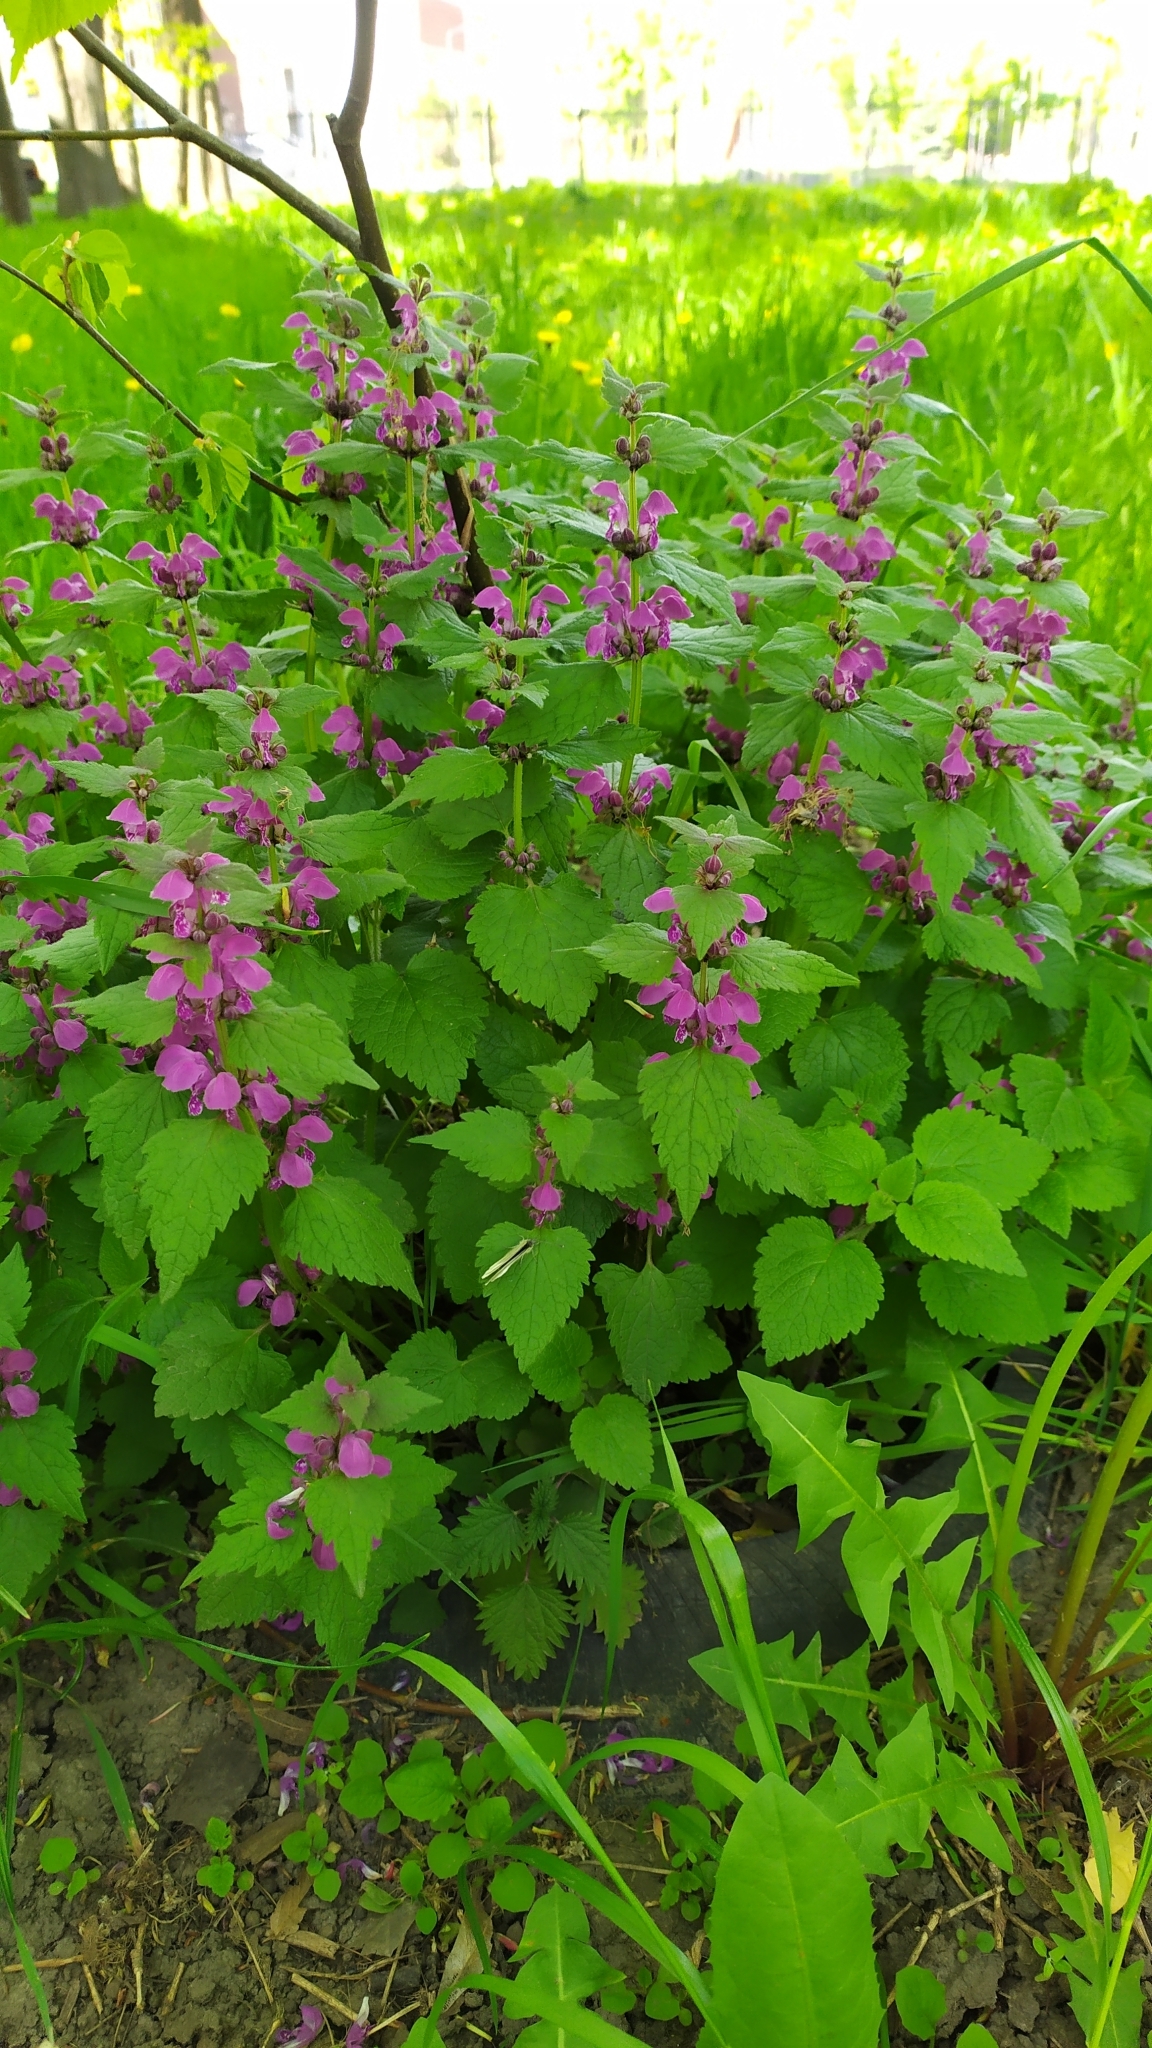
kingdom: Plantae
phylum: Tracheophyta
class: Magnoliopsida
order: Lamiales
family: Lamiaceae
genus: Lamium
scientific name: Lamium maculatum
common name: Spotted dead-nettle
